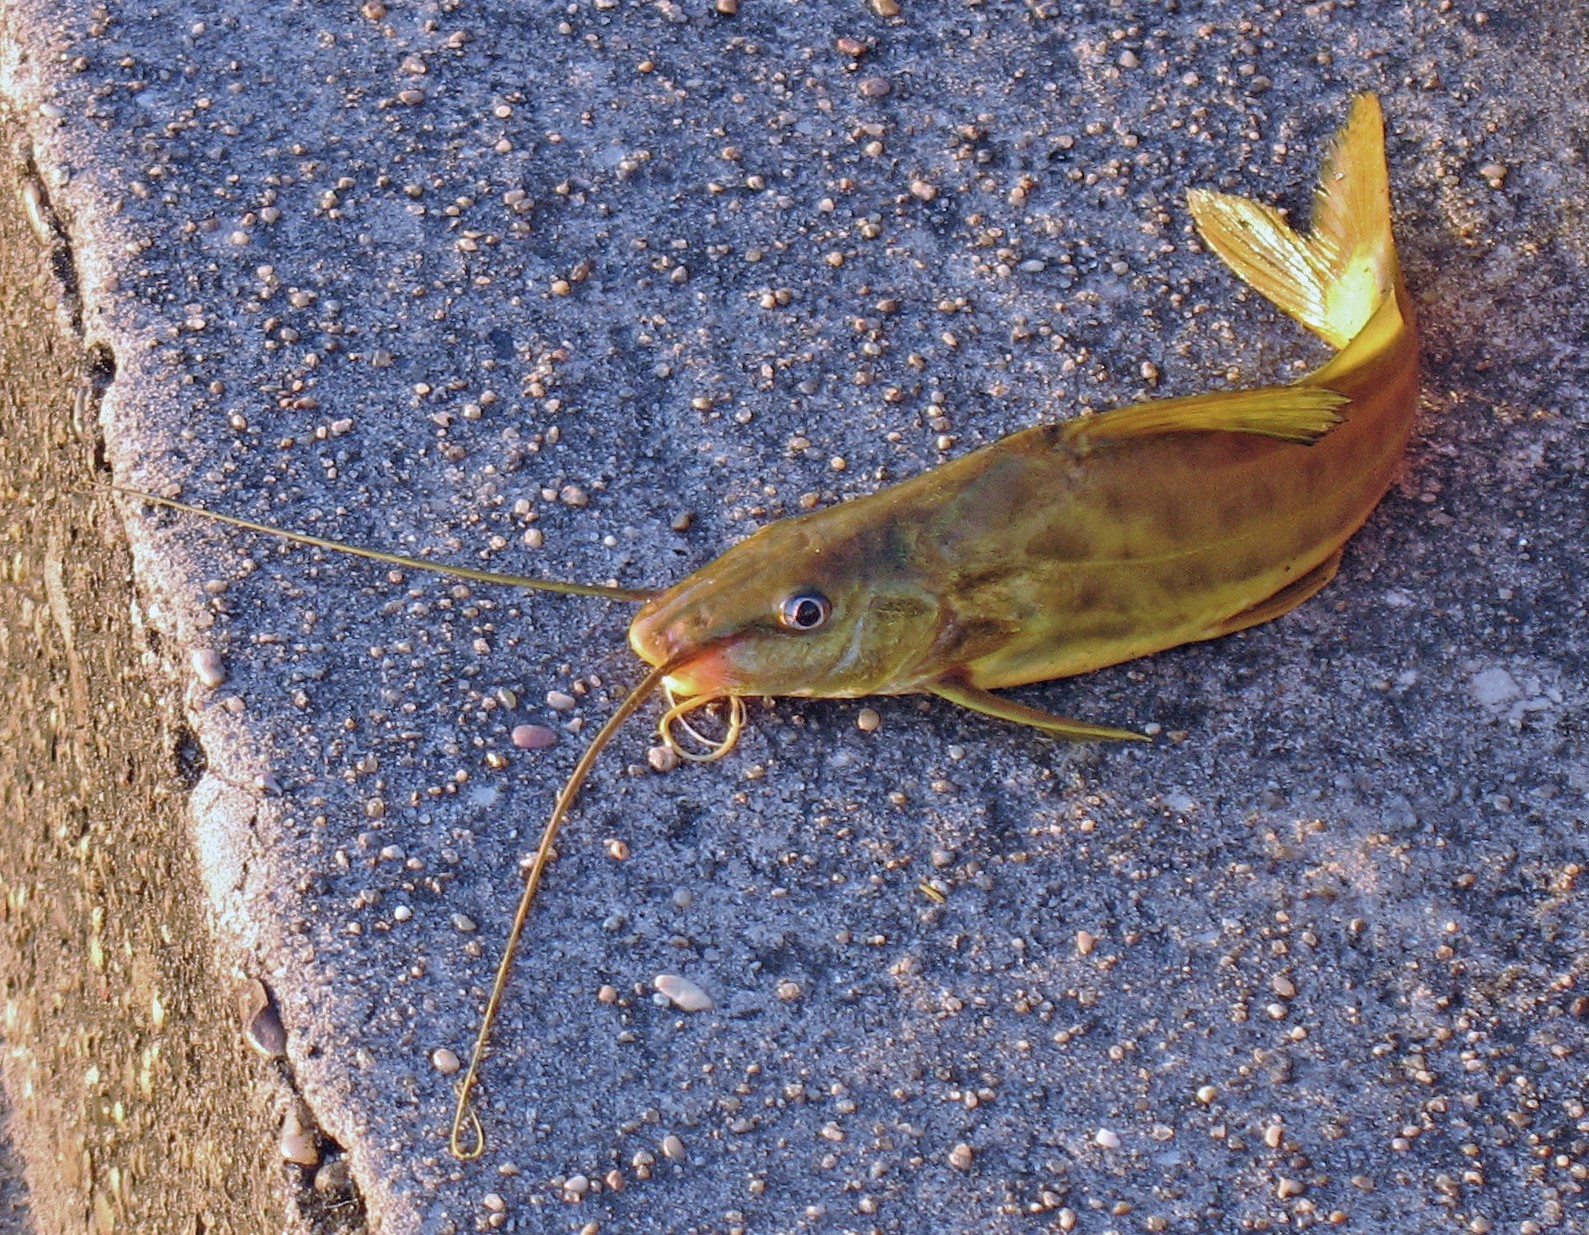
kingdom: Animalia
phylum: Chordata
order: Siluriformes
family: Pimelodidae
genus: Pimelodus
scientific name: Pimelodus maculatus
